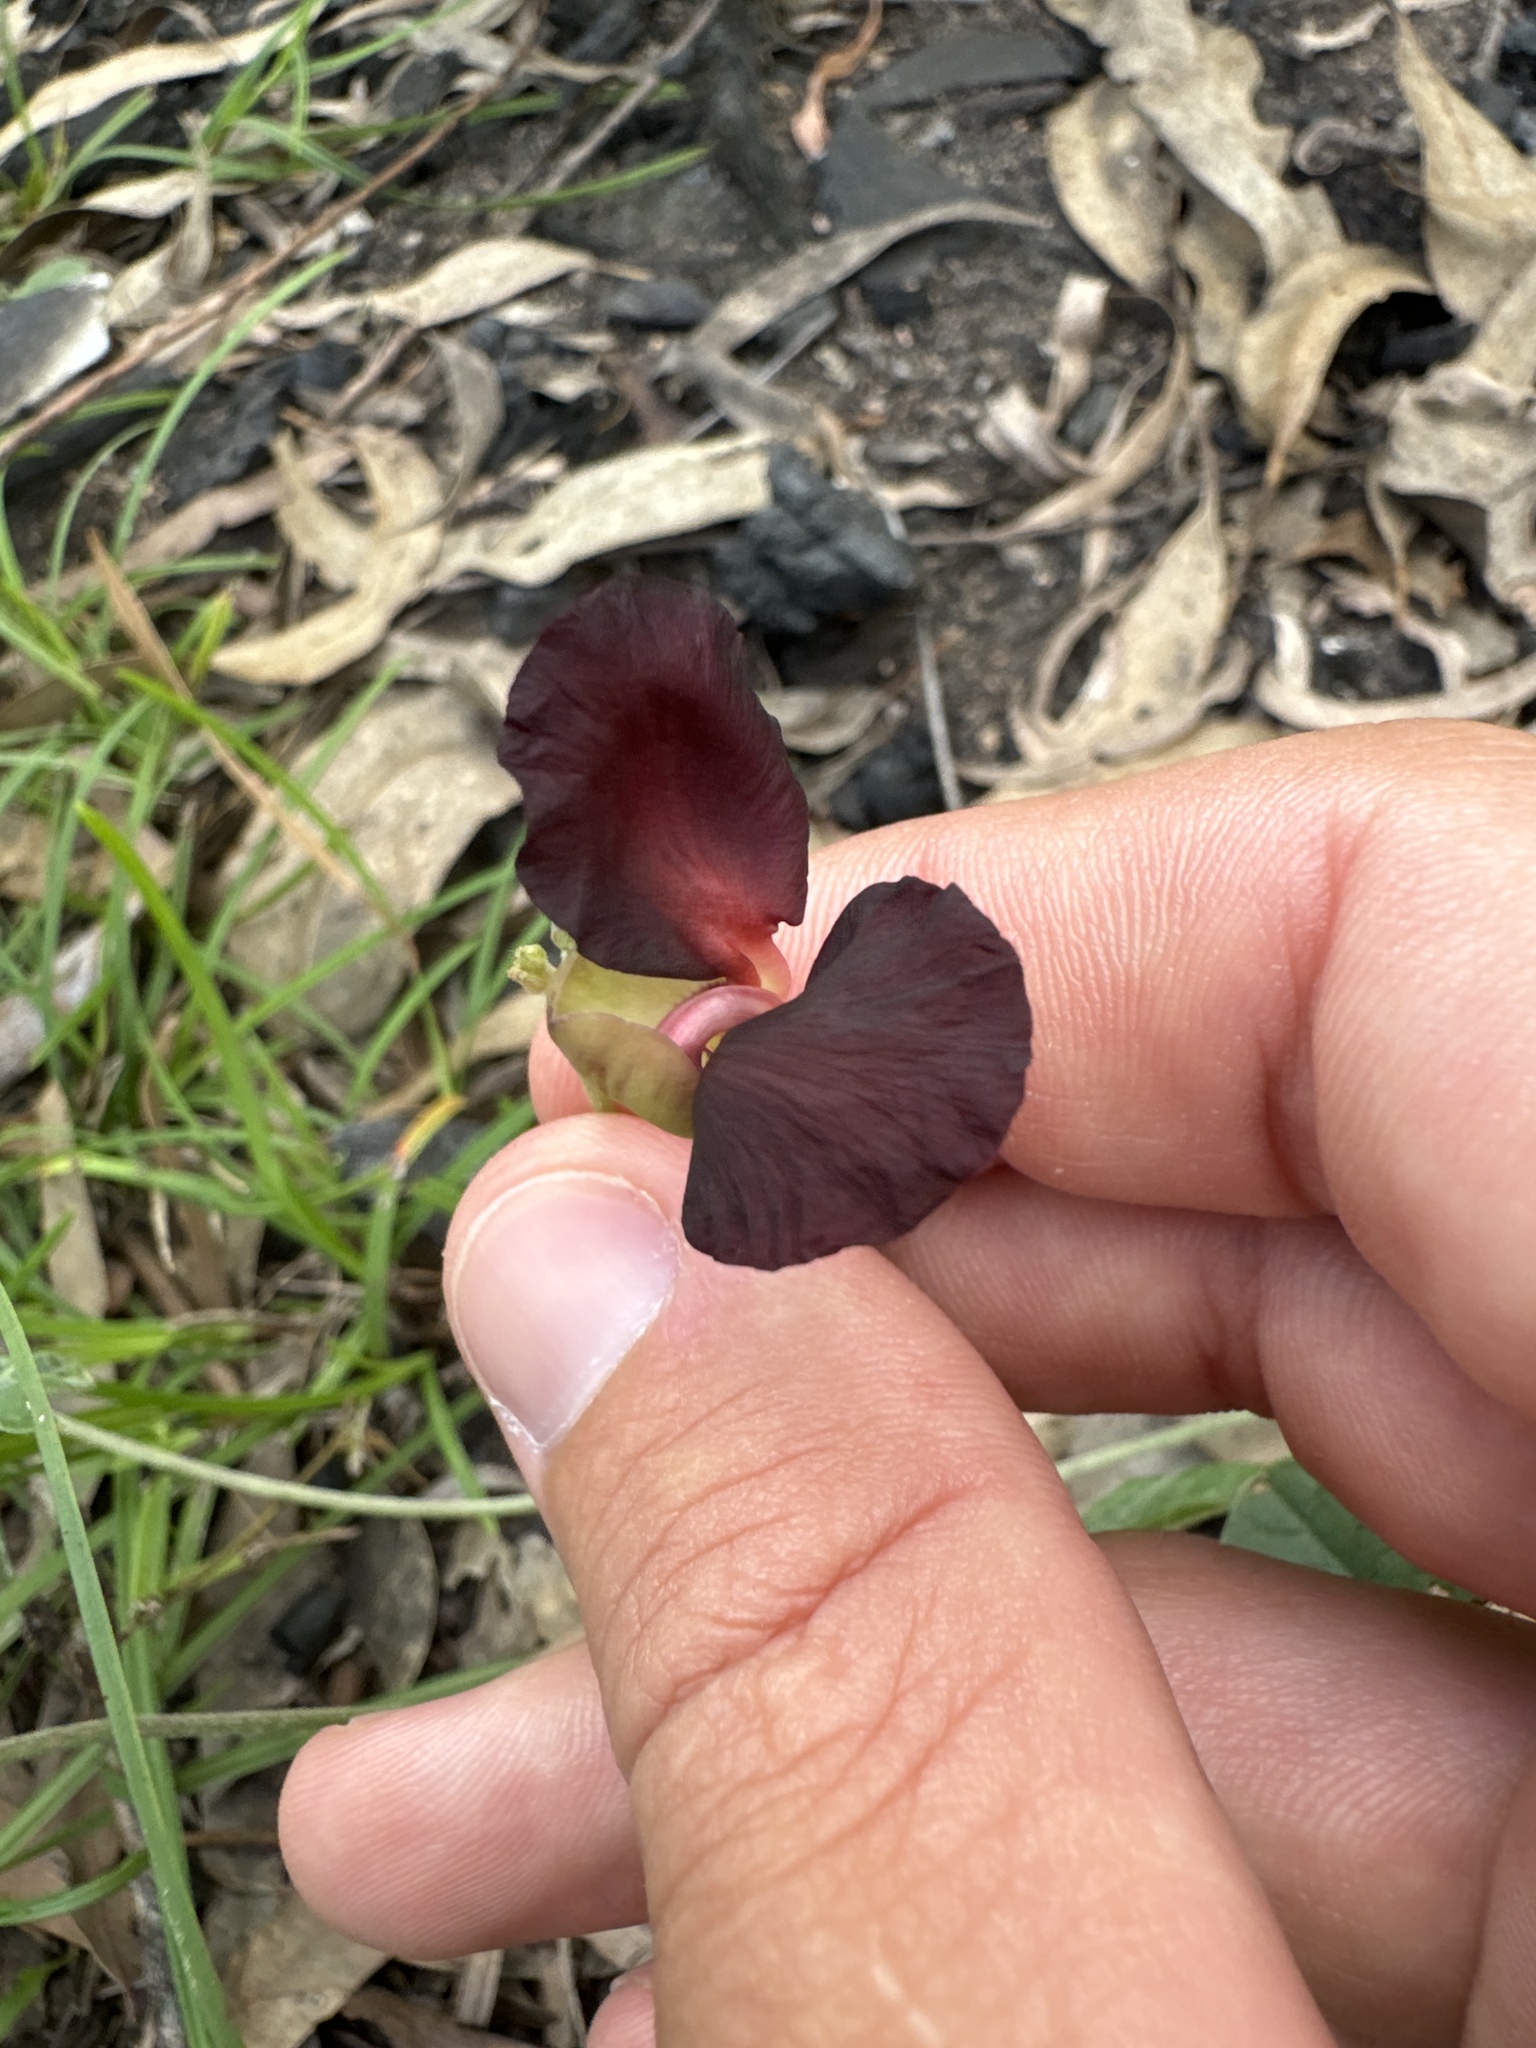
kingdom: Plantae
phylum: Tracheophyta
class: Magnoliopsida
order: Fabales
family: Fabaceae
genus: Macroptilium
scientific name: Macroptilium atropurpureum
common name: Purple bushbean
